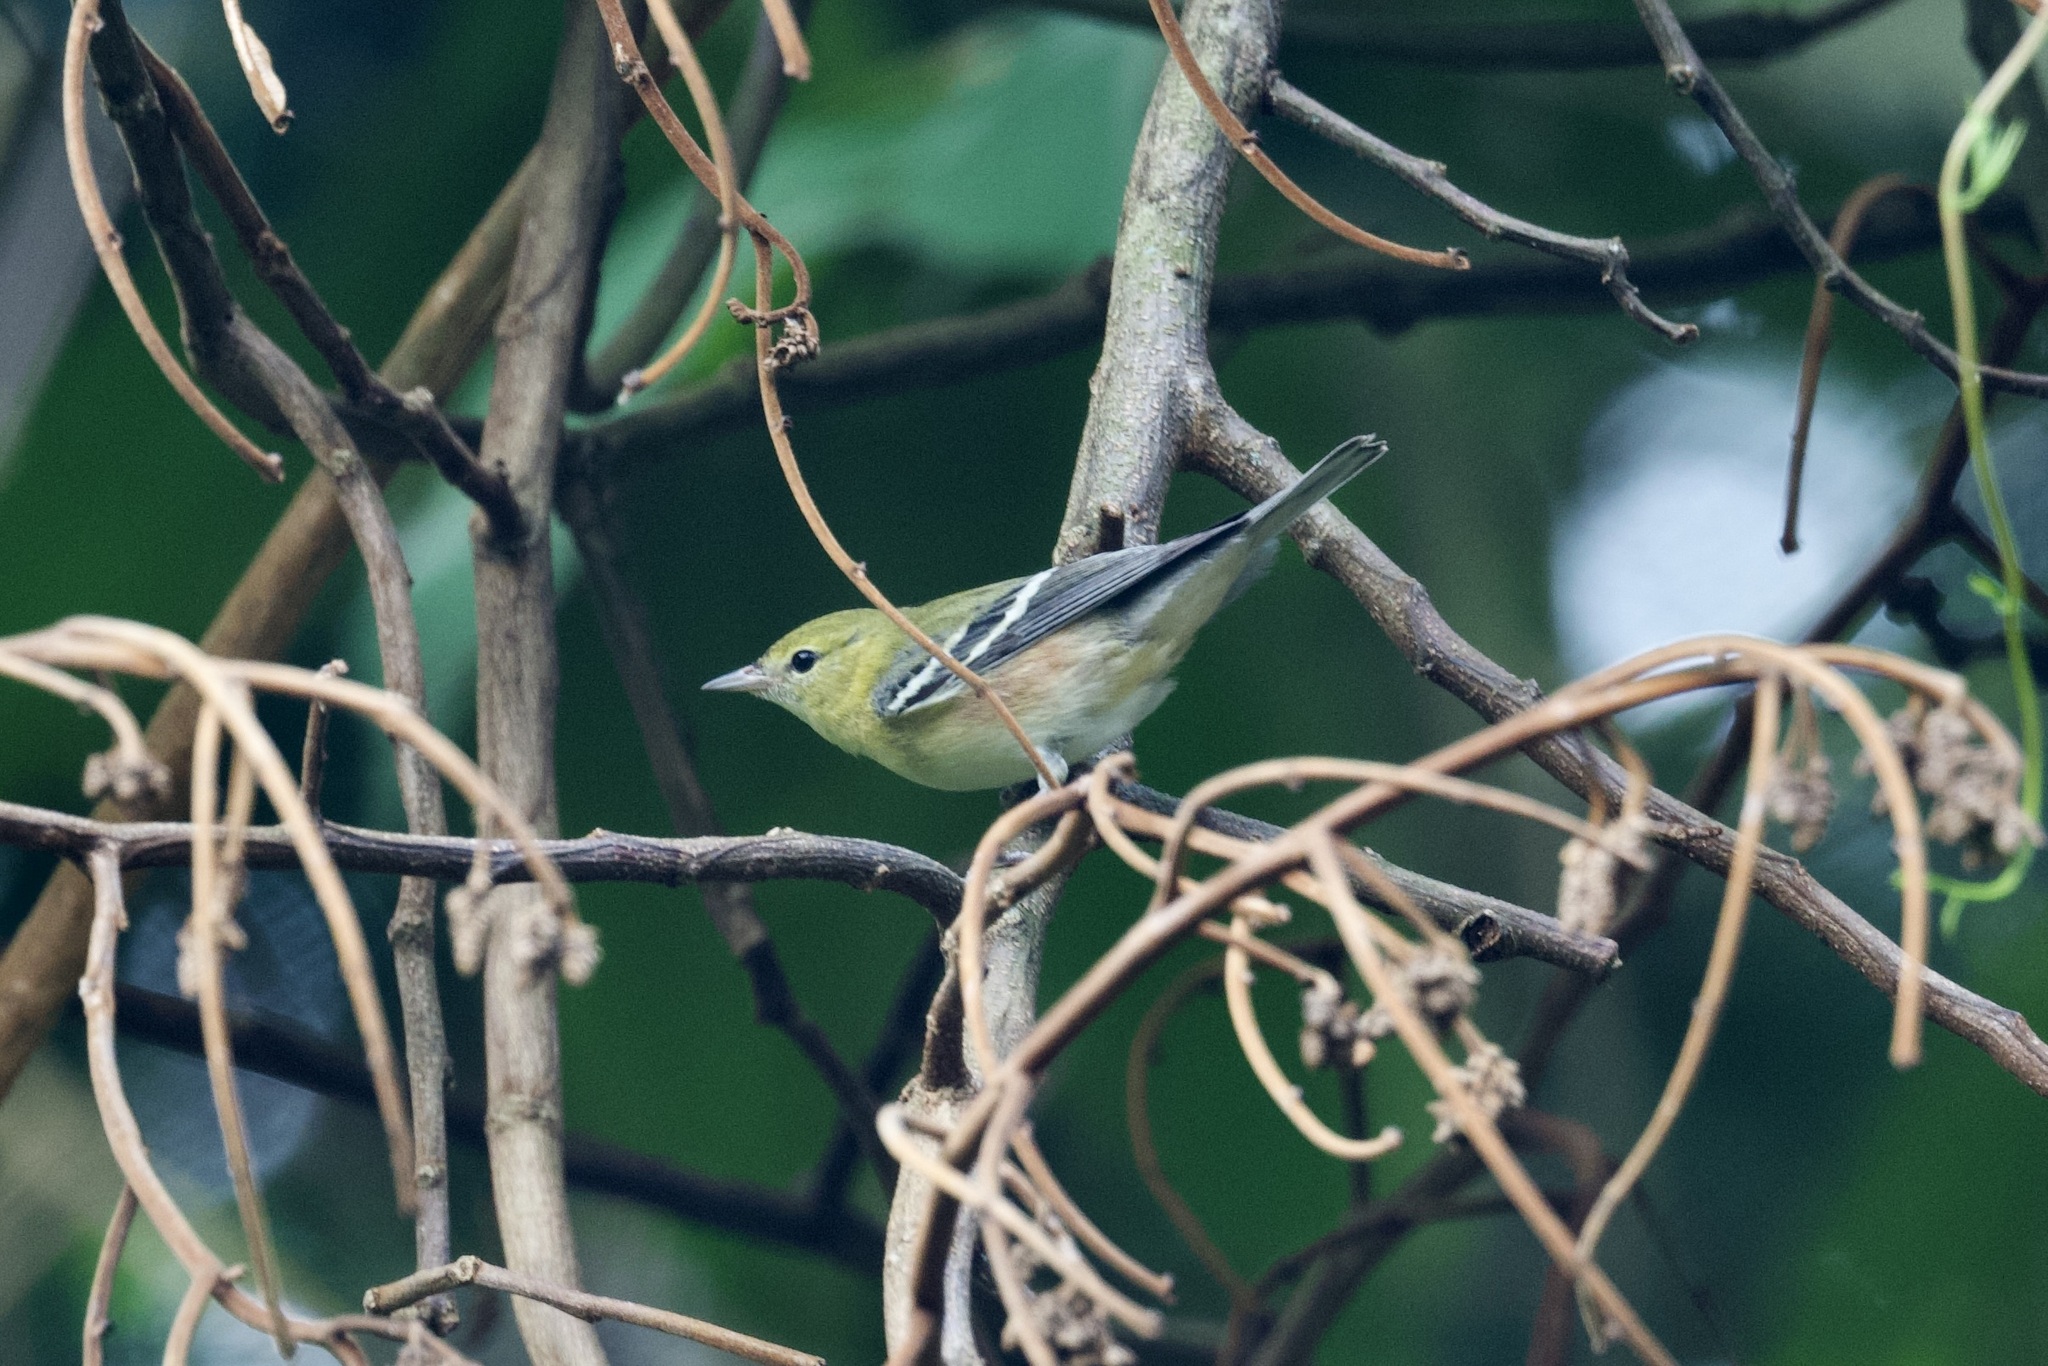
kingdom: Animalia
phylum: Chordata
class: Aves
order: Passeriformes
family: Parulidae
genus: Setophaga
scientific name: Setophaga castanea
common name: Bay-breasted warbler
